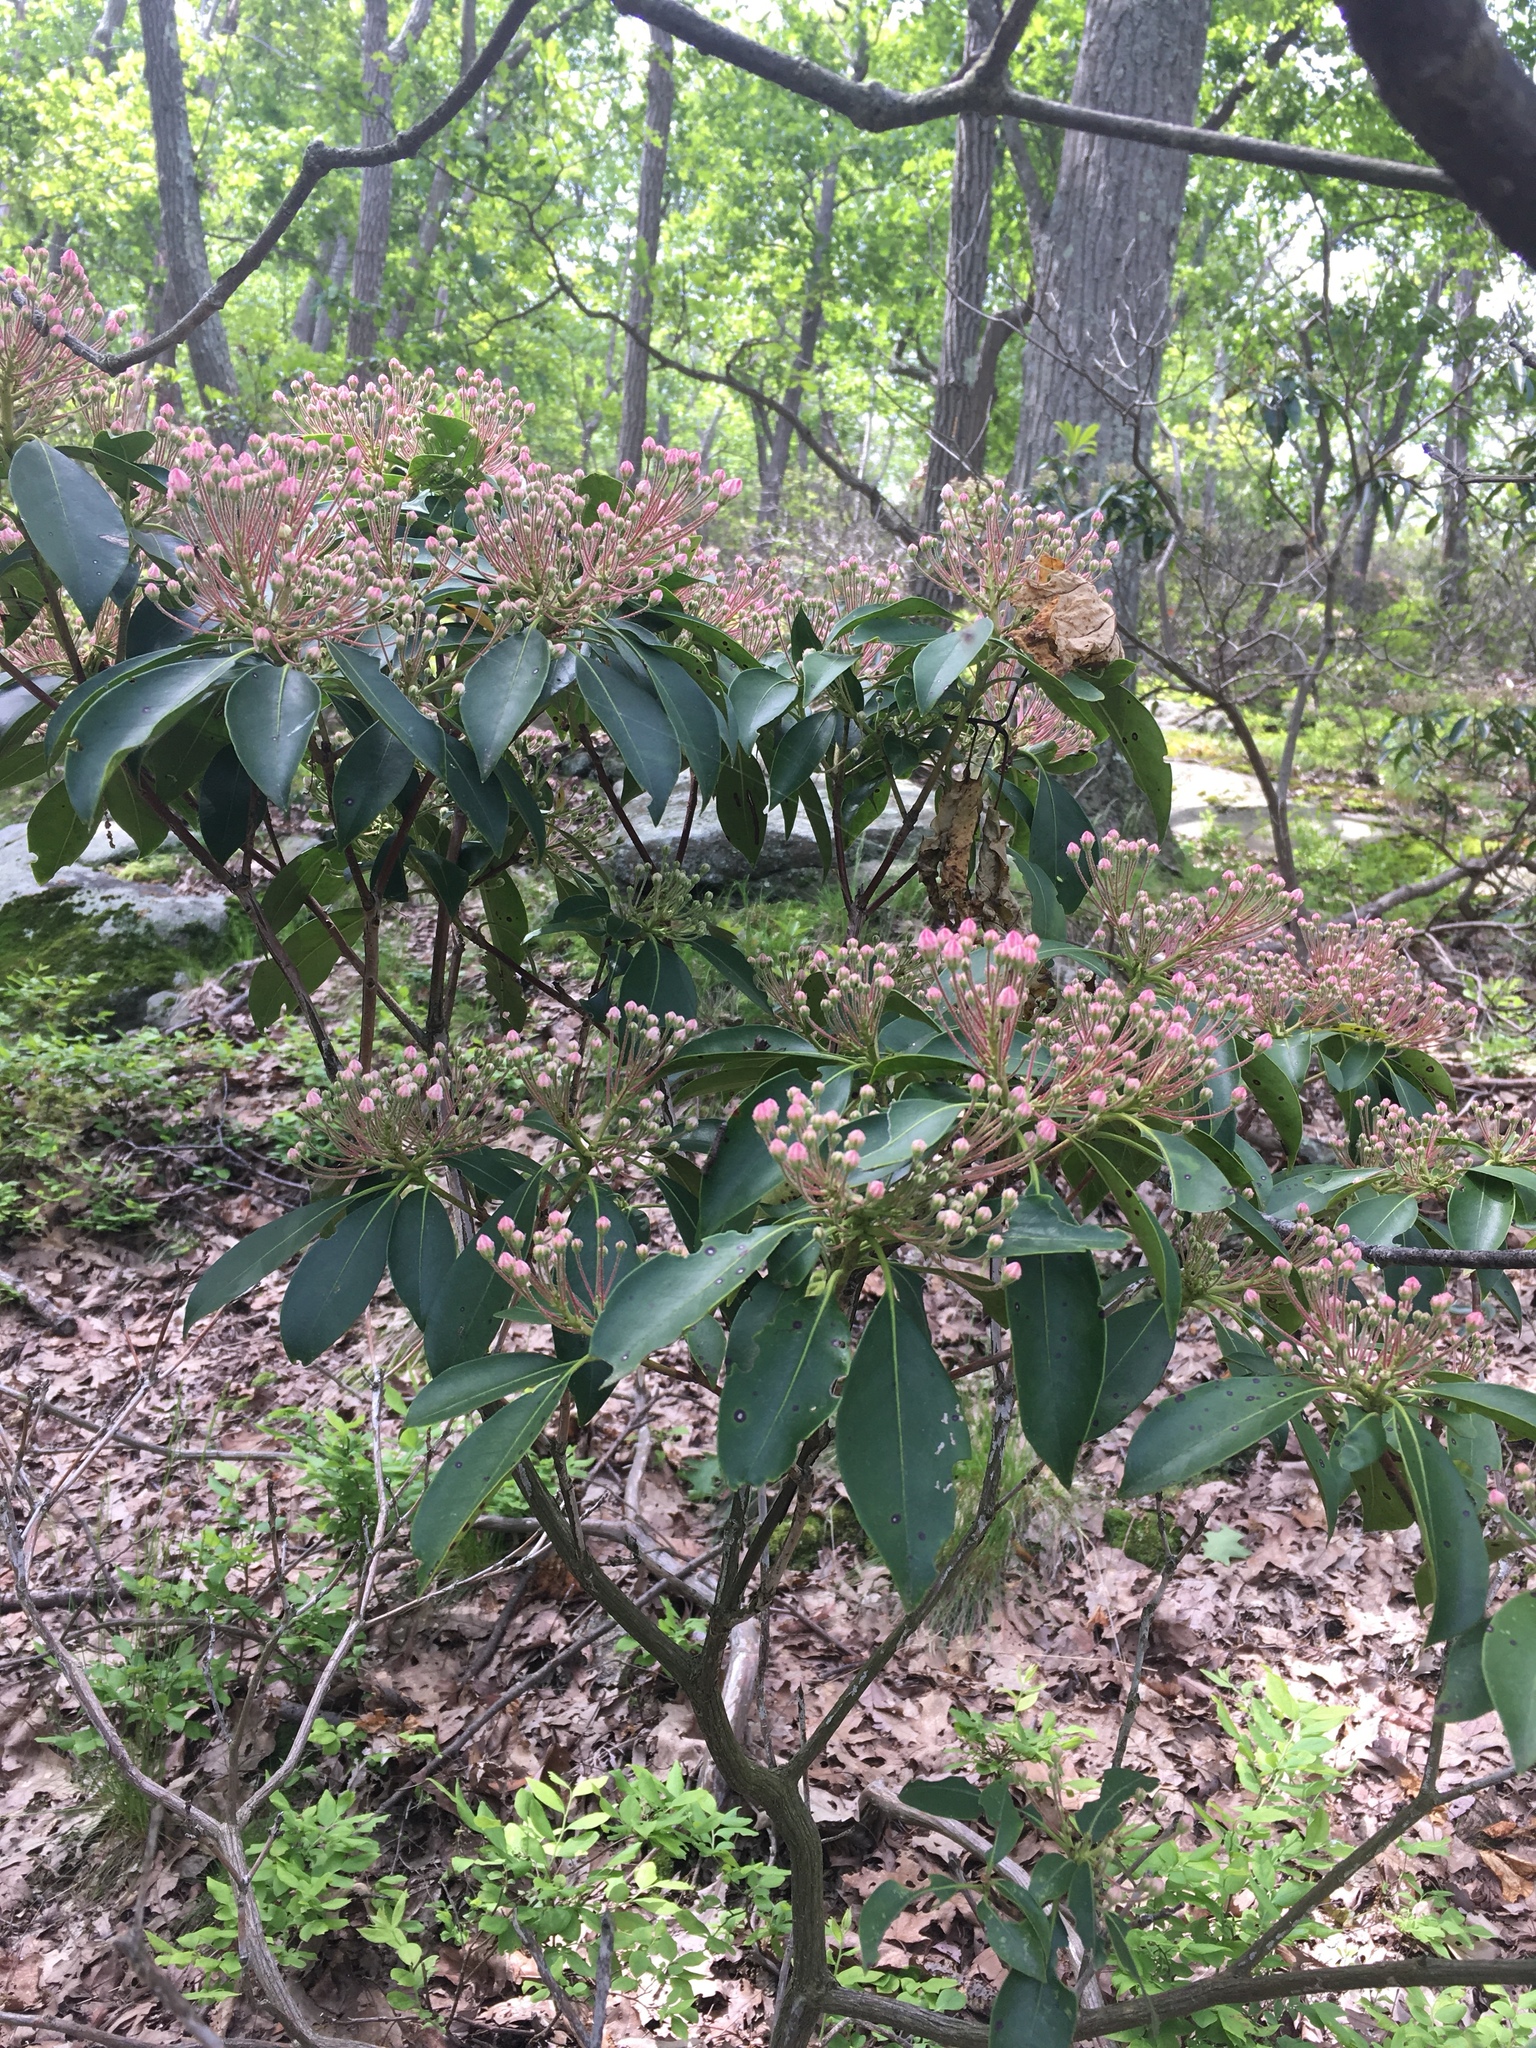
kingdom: Plantae
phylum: Tracheophyta
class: Magnoliopsida
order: Ericales
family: Ericaceae
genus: Kalmia
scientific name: Kalmia latifolia
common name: Mountain-laurel
